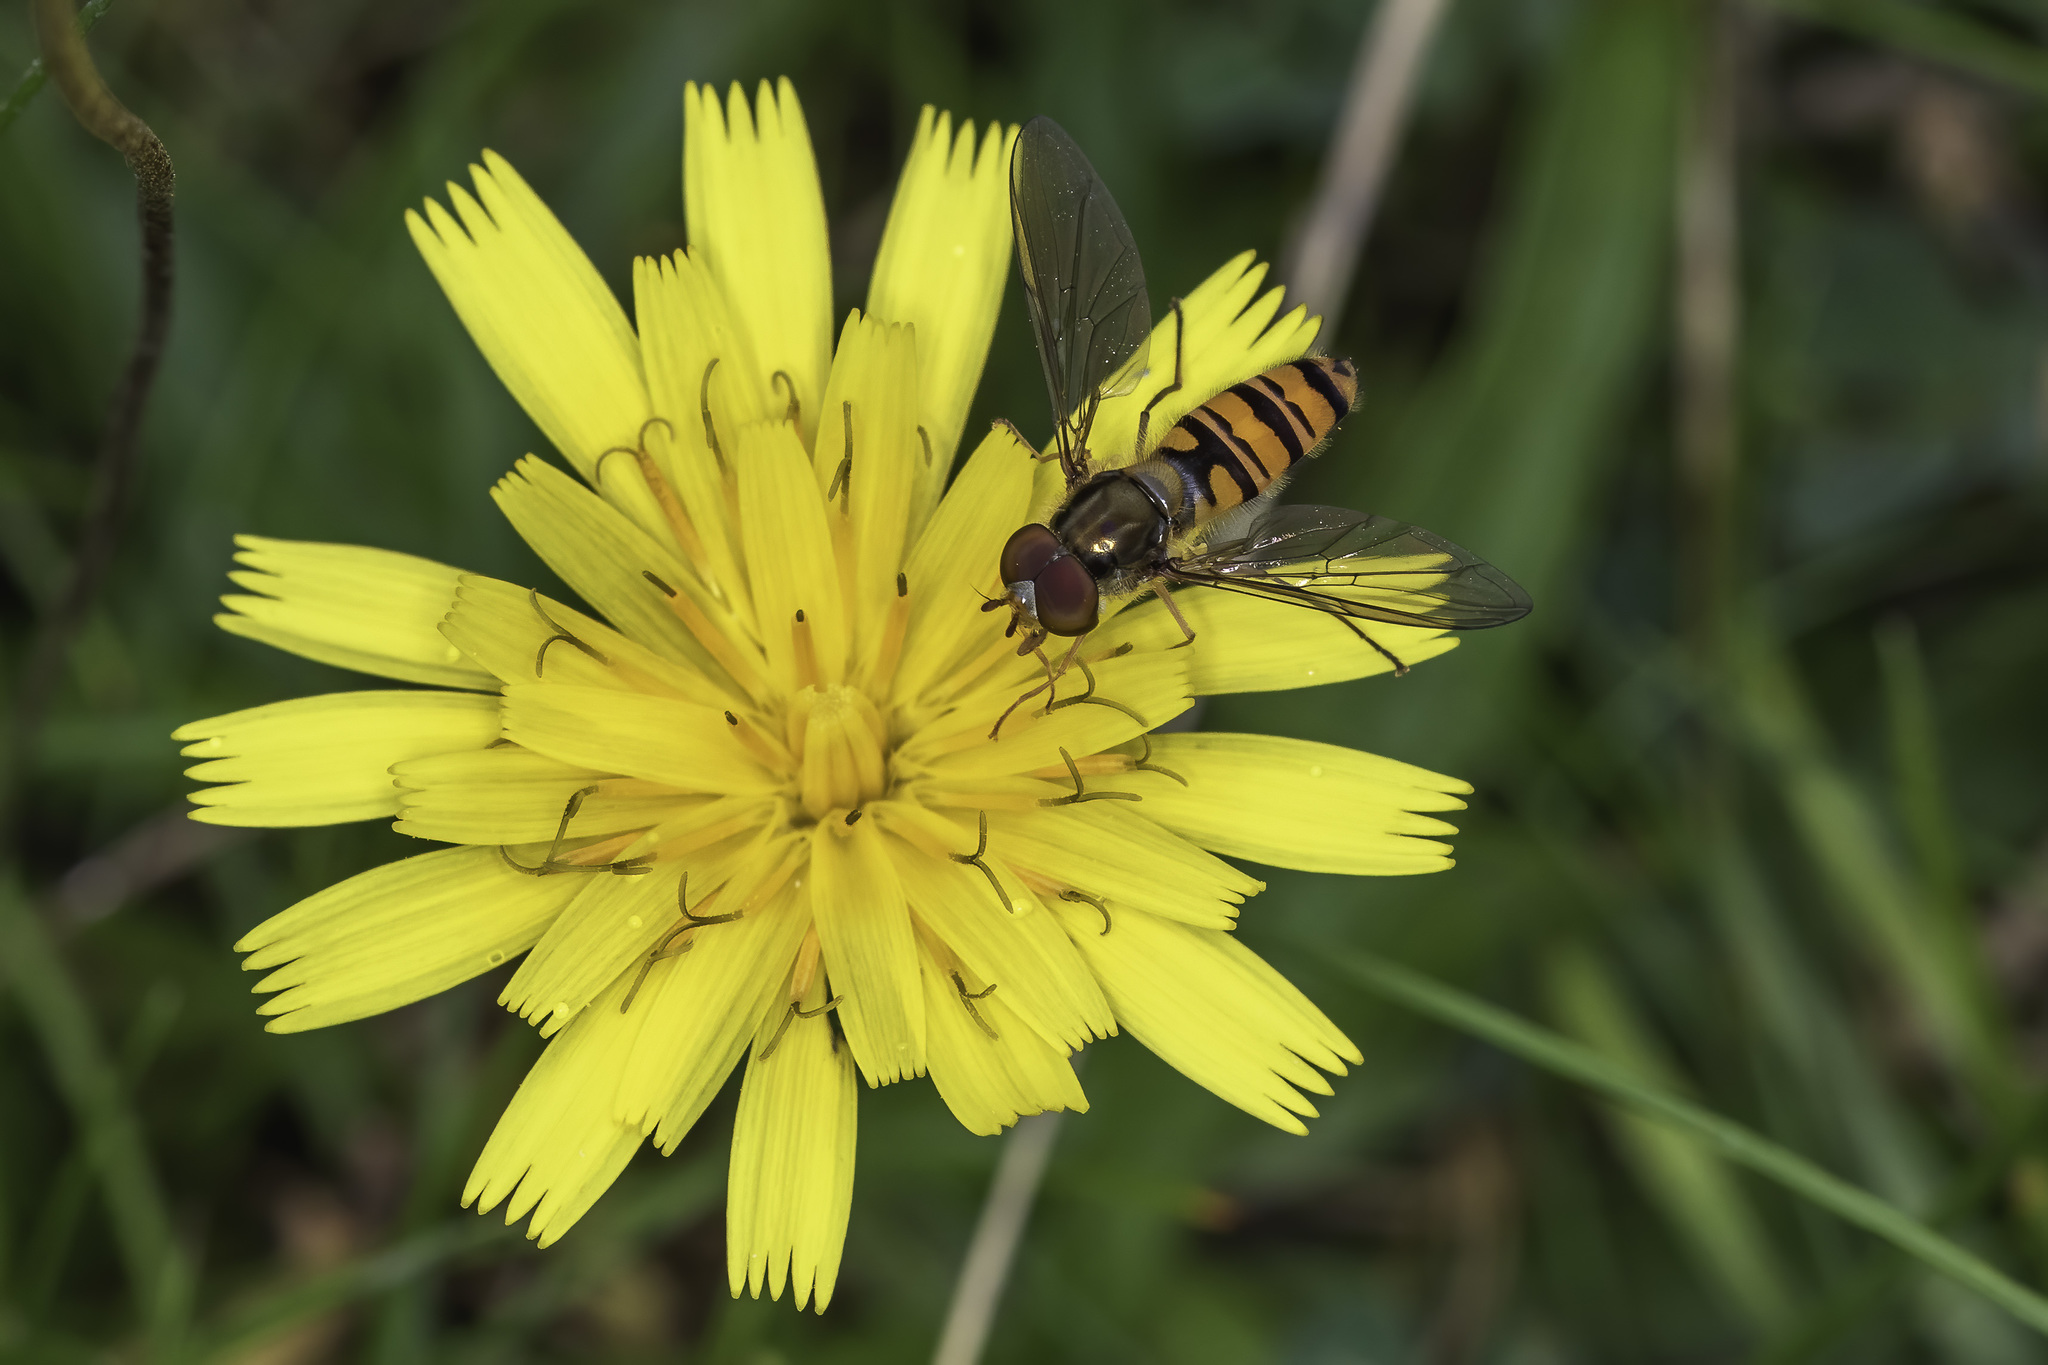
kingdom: Animalia
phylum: Arthropoda
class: Insecta
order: Diptera
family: Syrphidae
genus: Episyrphus
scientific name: Episyrphus balteatus
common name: Marmalade hoverfly
